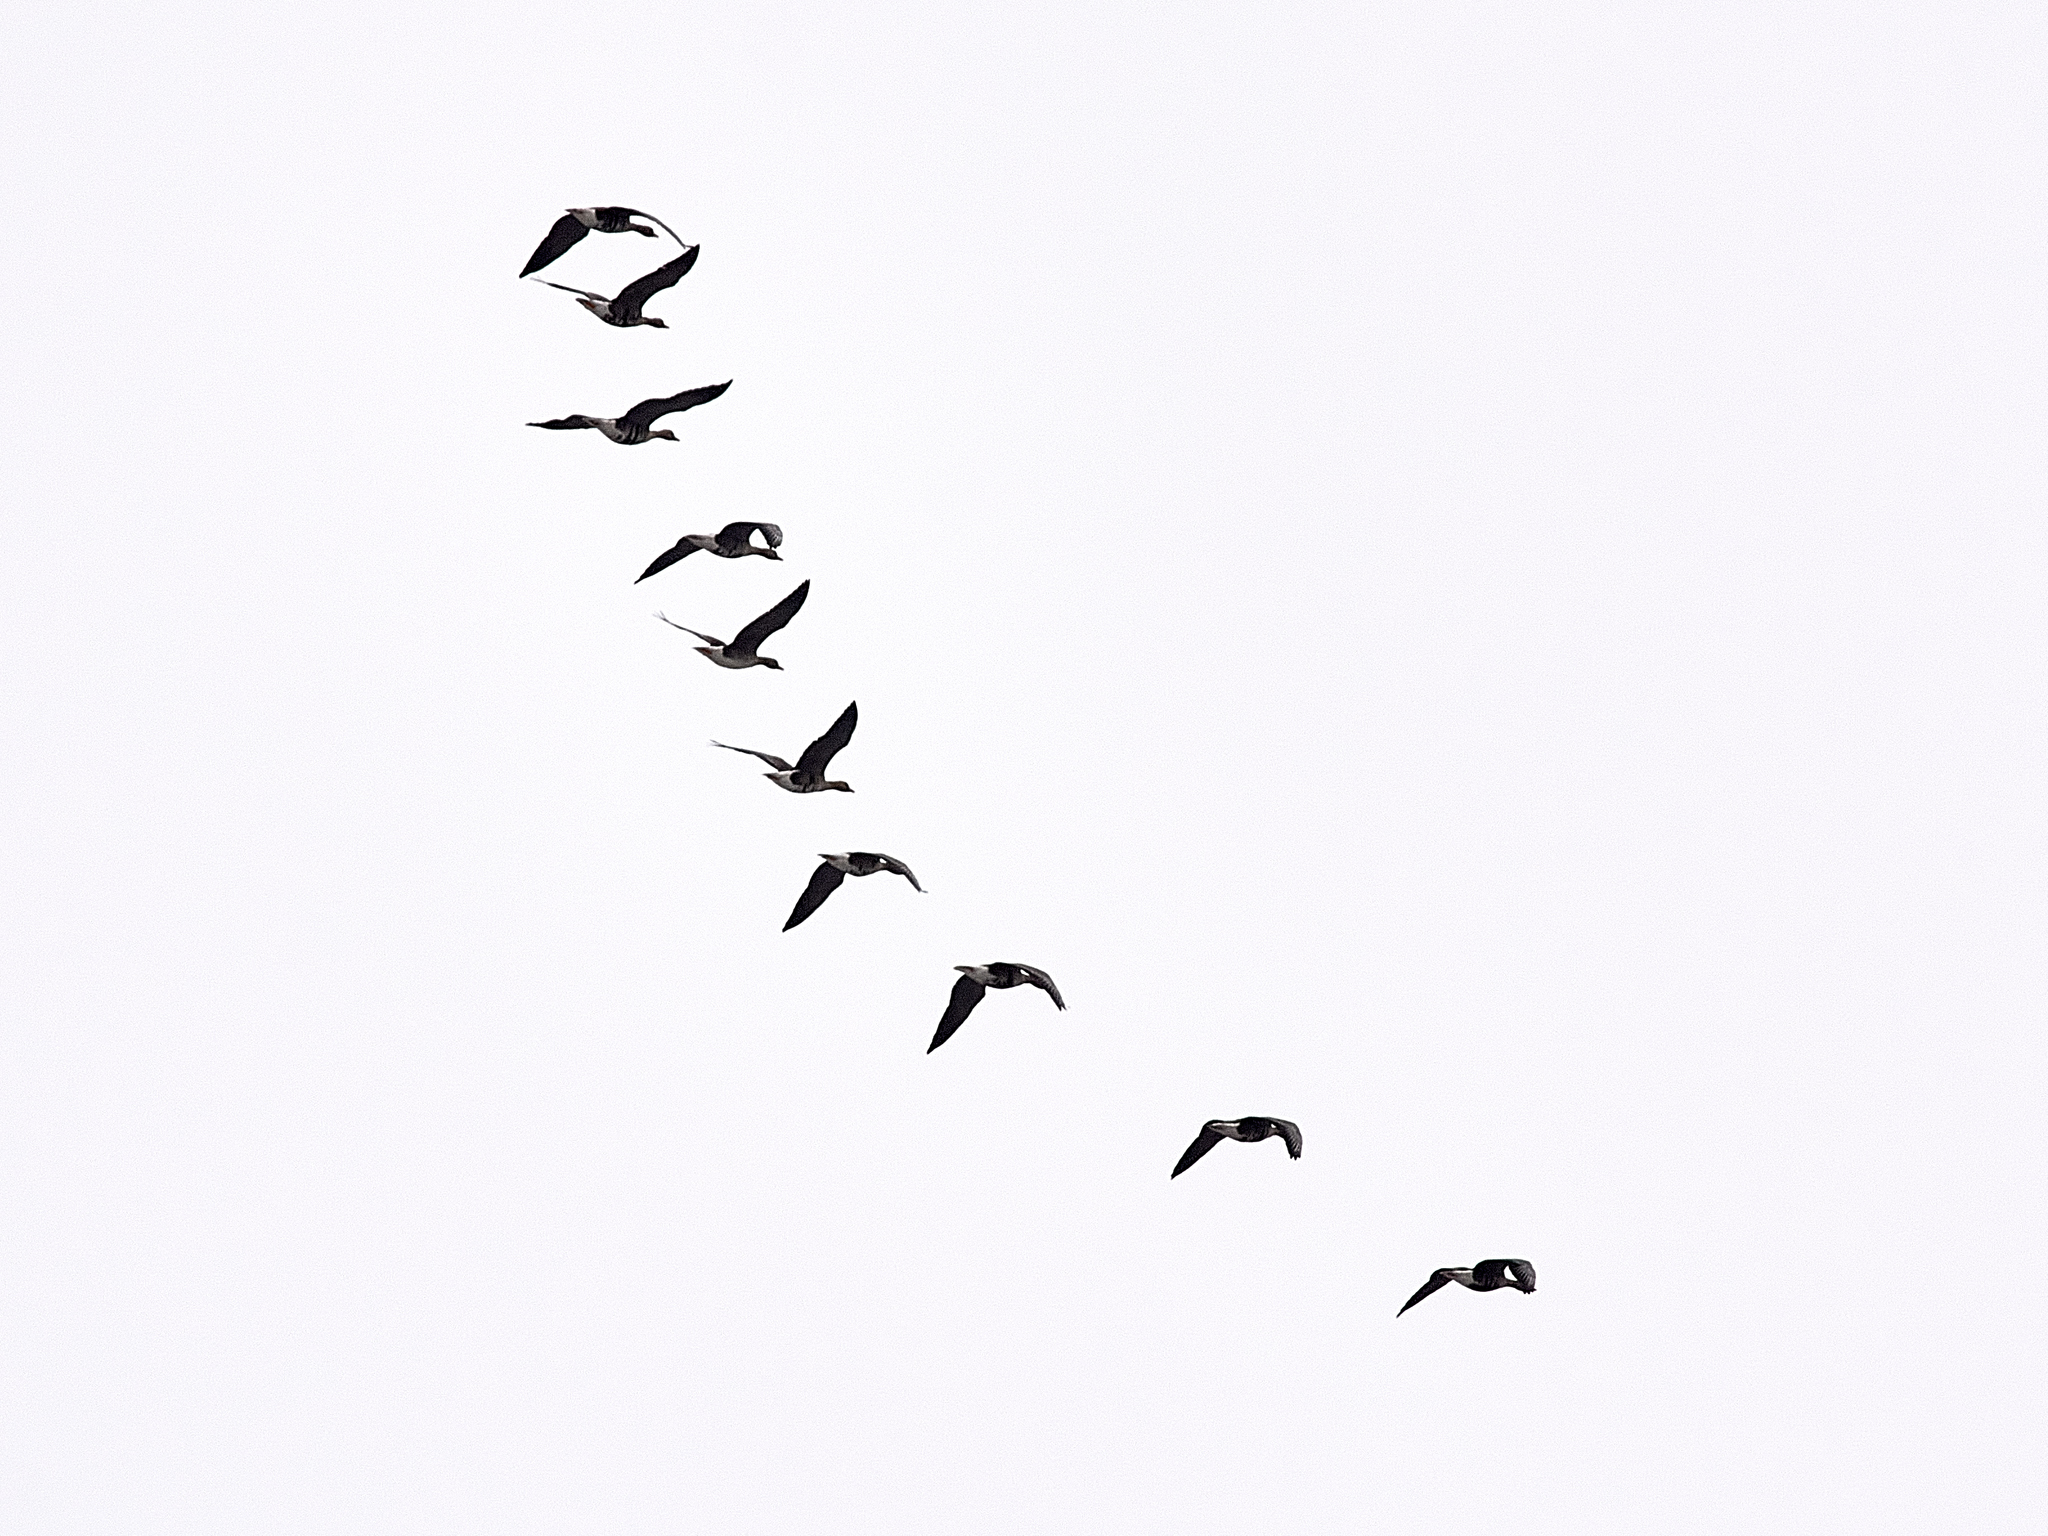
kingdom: Animalia
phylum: Chordata
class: Aves
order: Anseriformes
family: Anatidae
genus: Anser
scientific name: Anser albifrons
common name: Greater white-fronted goose
